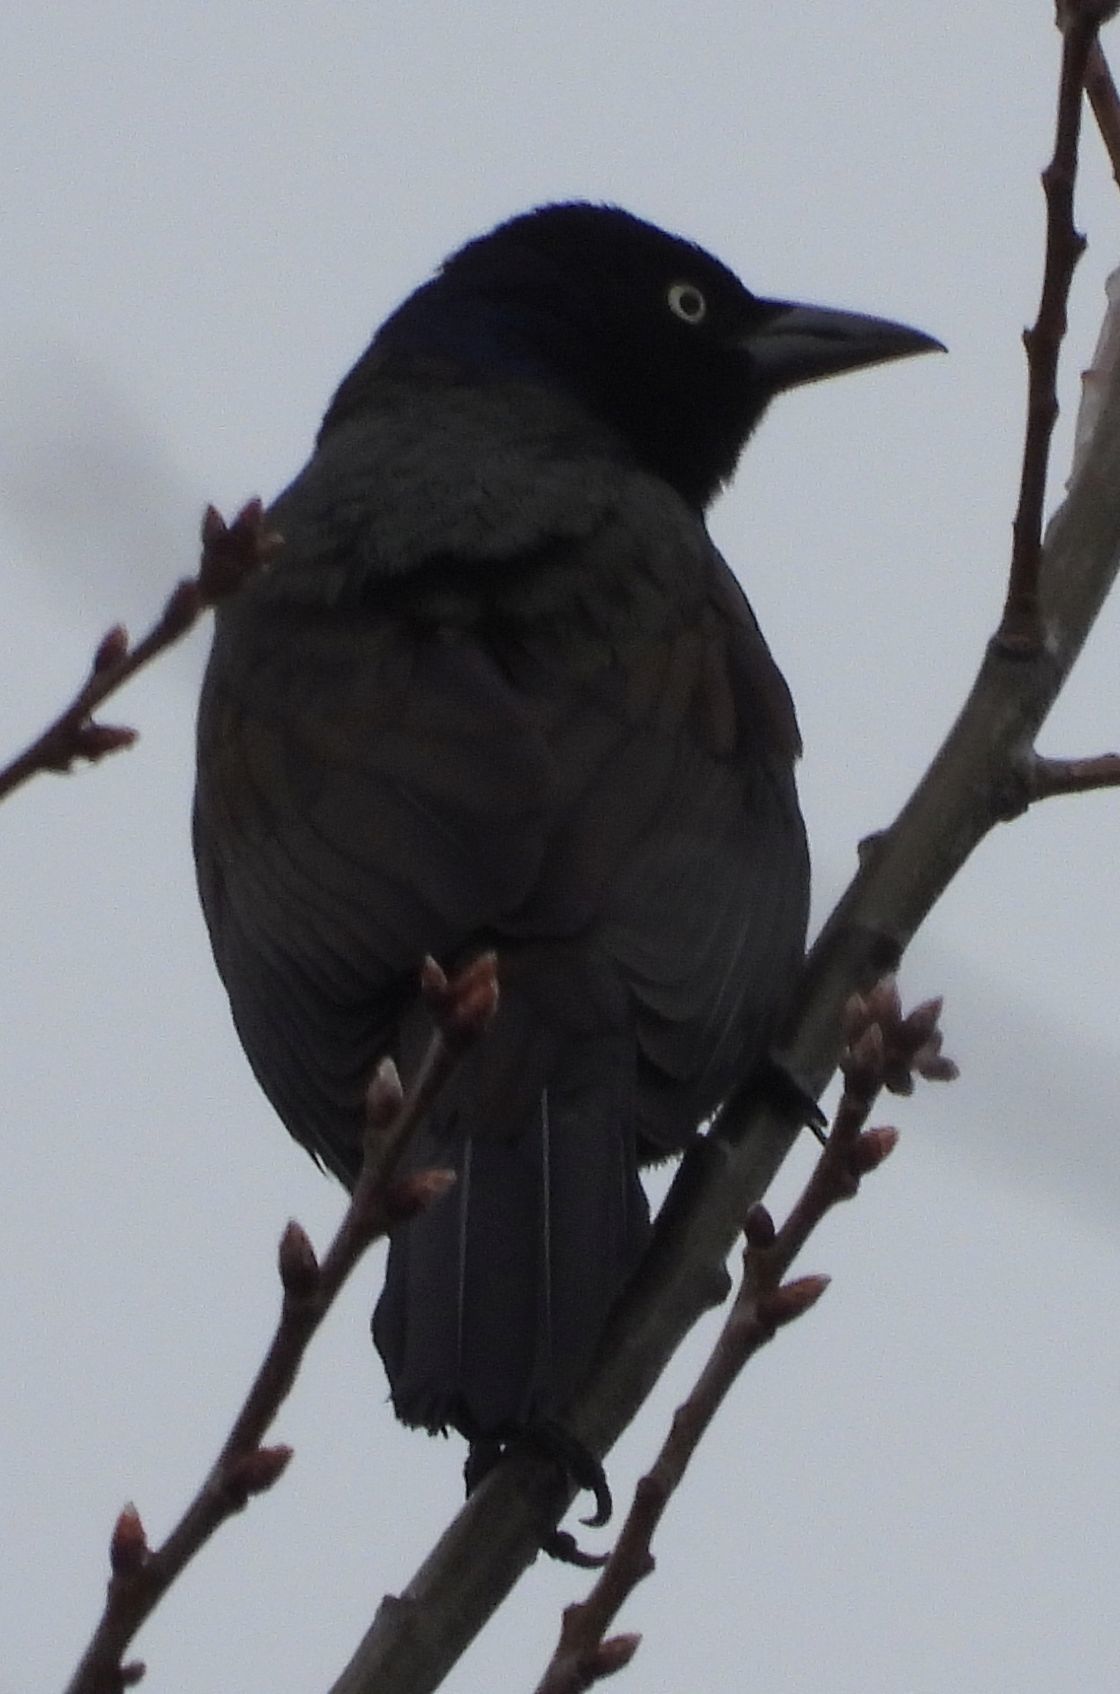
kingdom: Animalia
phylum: Chordata
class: Aves
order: Passeriformes
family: Icteridae
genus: Quiscalus
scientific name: Quiscalus quiscula
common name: Common grackle
